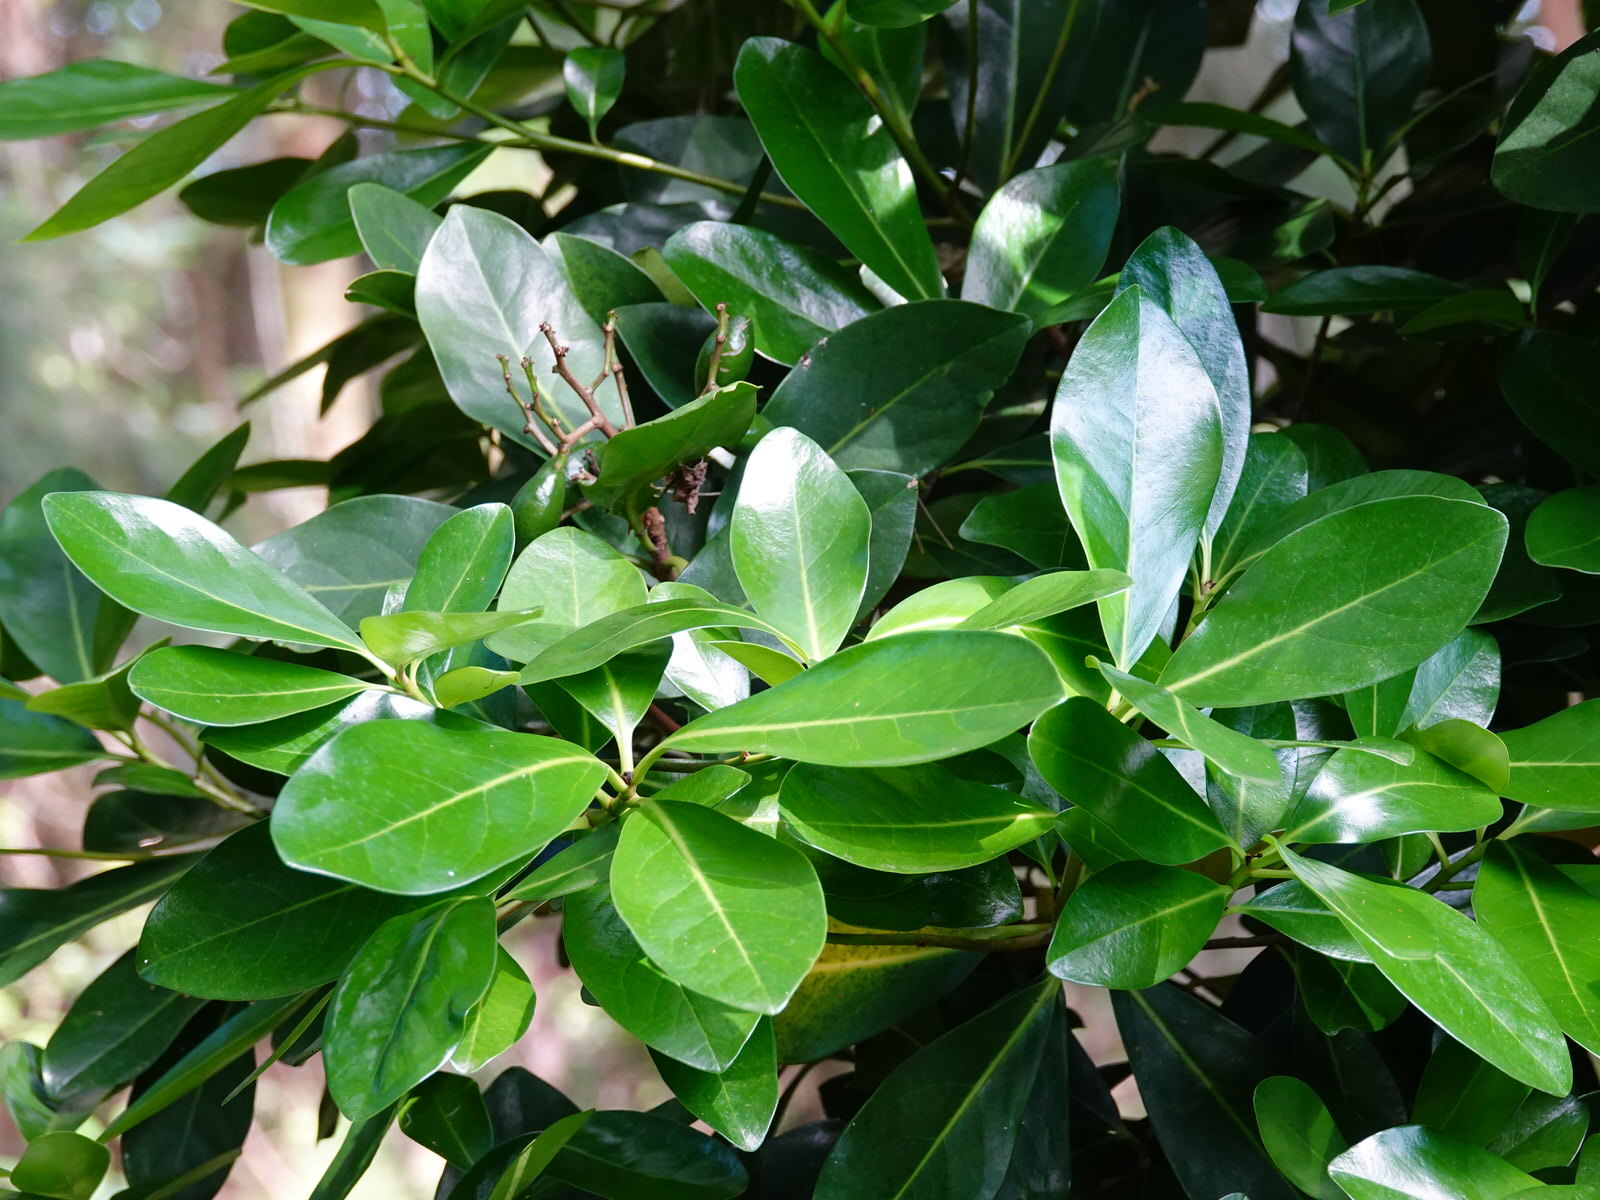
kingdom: Plantae
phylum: Tracheophyta
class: Magnoliopsida
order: Cucurbitales
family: Corynocarpaceae
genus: Corynocarpus
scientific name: Corynocarpus laevigatus
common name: New zealand laurel
